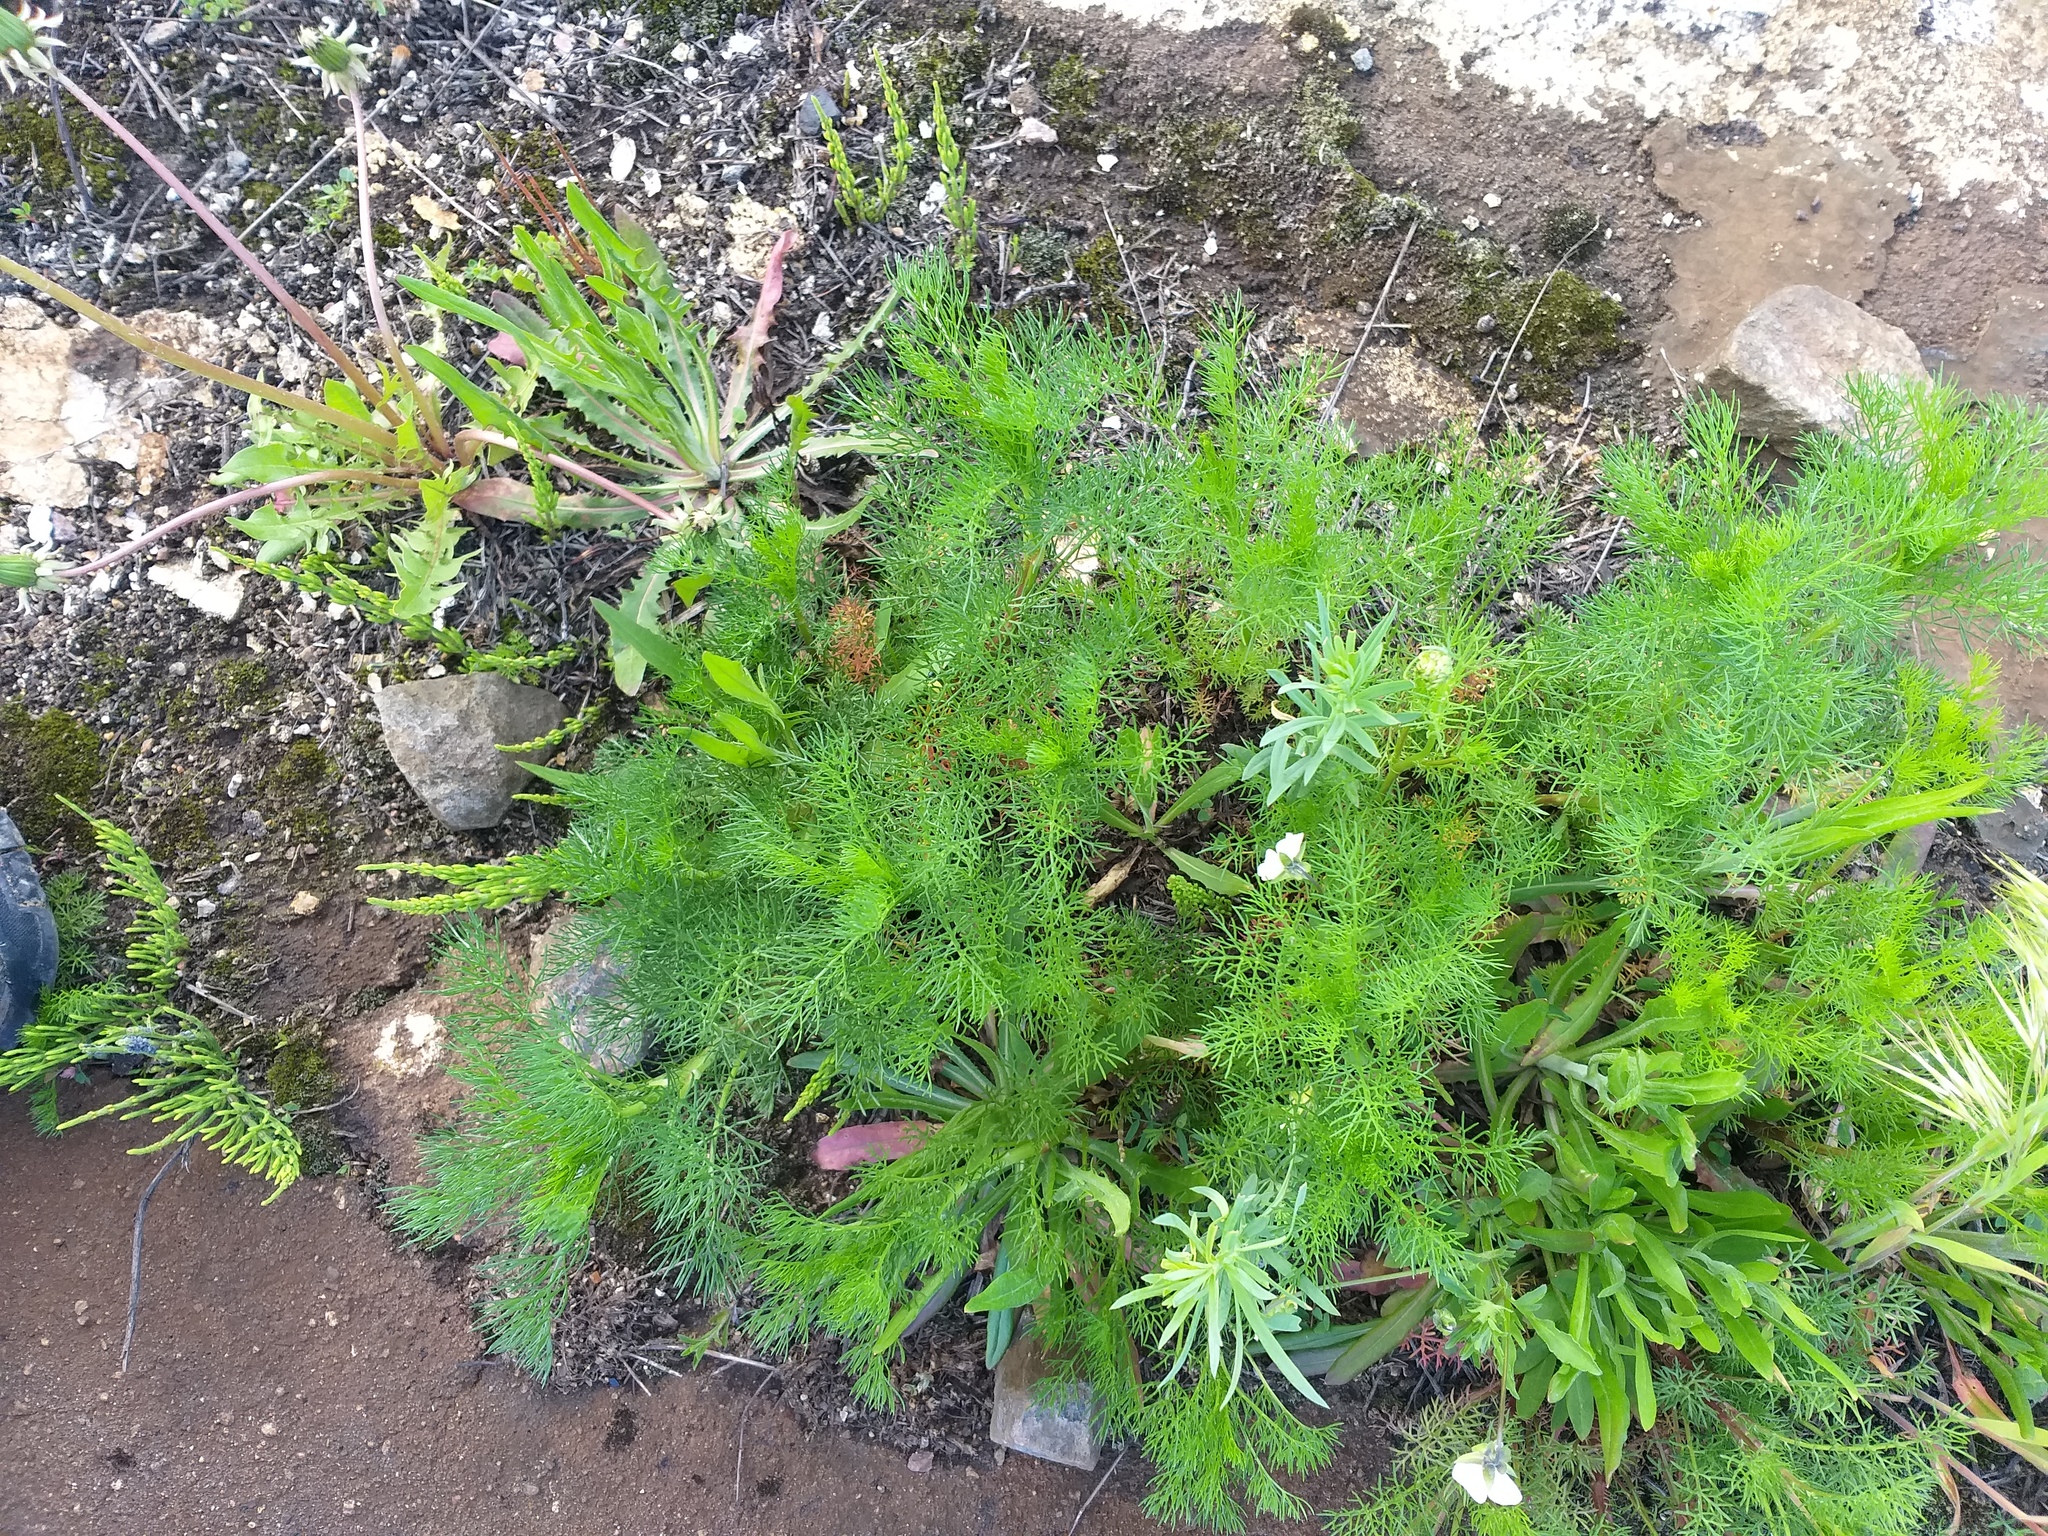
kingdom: Plantae
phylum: Tracheophyta
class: Magnoliopsida
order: Asterales
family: Asteraceae
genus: Tripleurospermum
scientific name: Tripleurospermum inodorum
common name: Scentless mayweed
